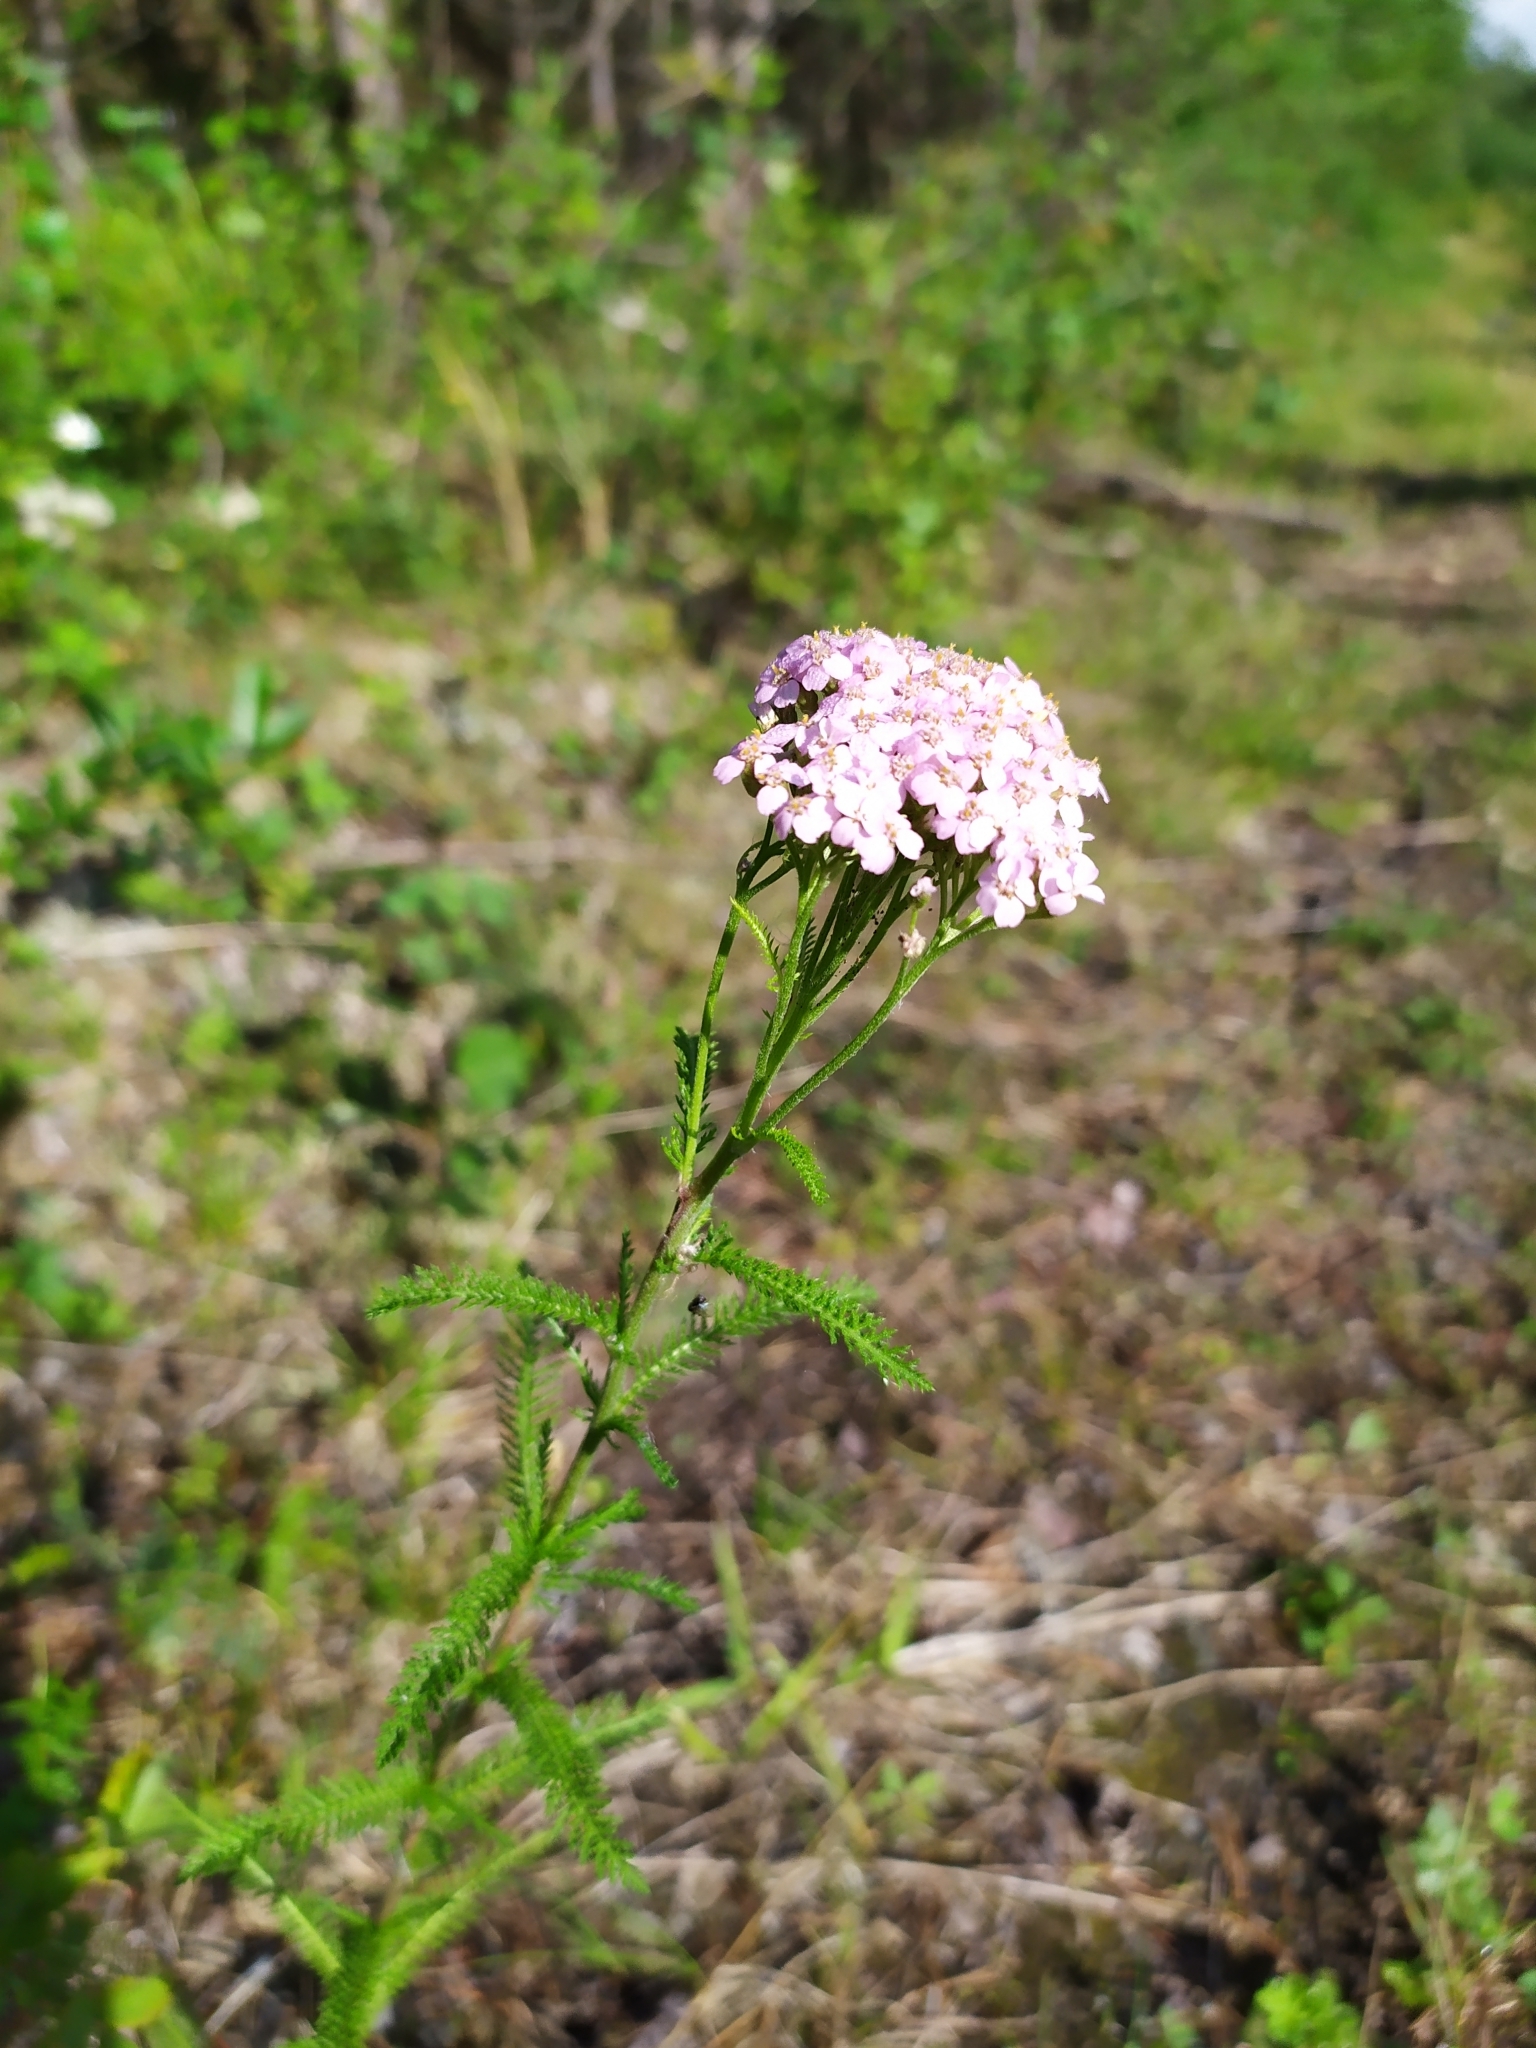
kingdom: Plantae
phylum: Tracheophyta
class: Magnoliopsida
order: Asterales
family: Asteraceae
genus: Achillea
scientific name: Achillea asiatica
